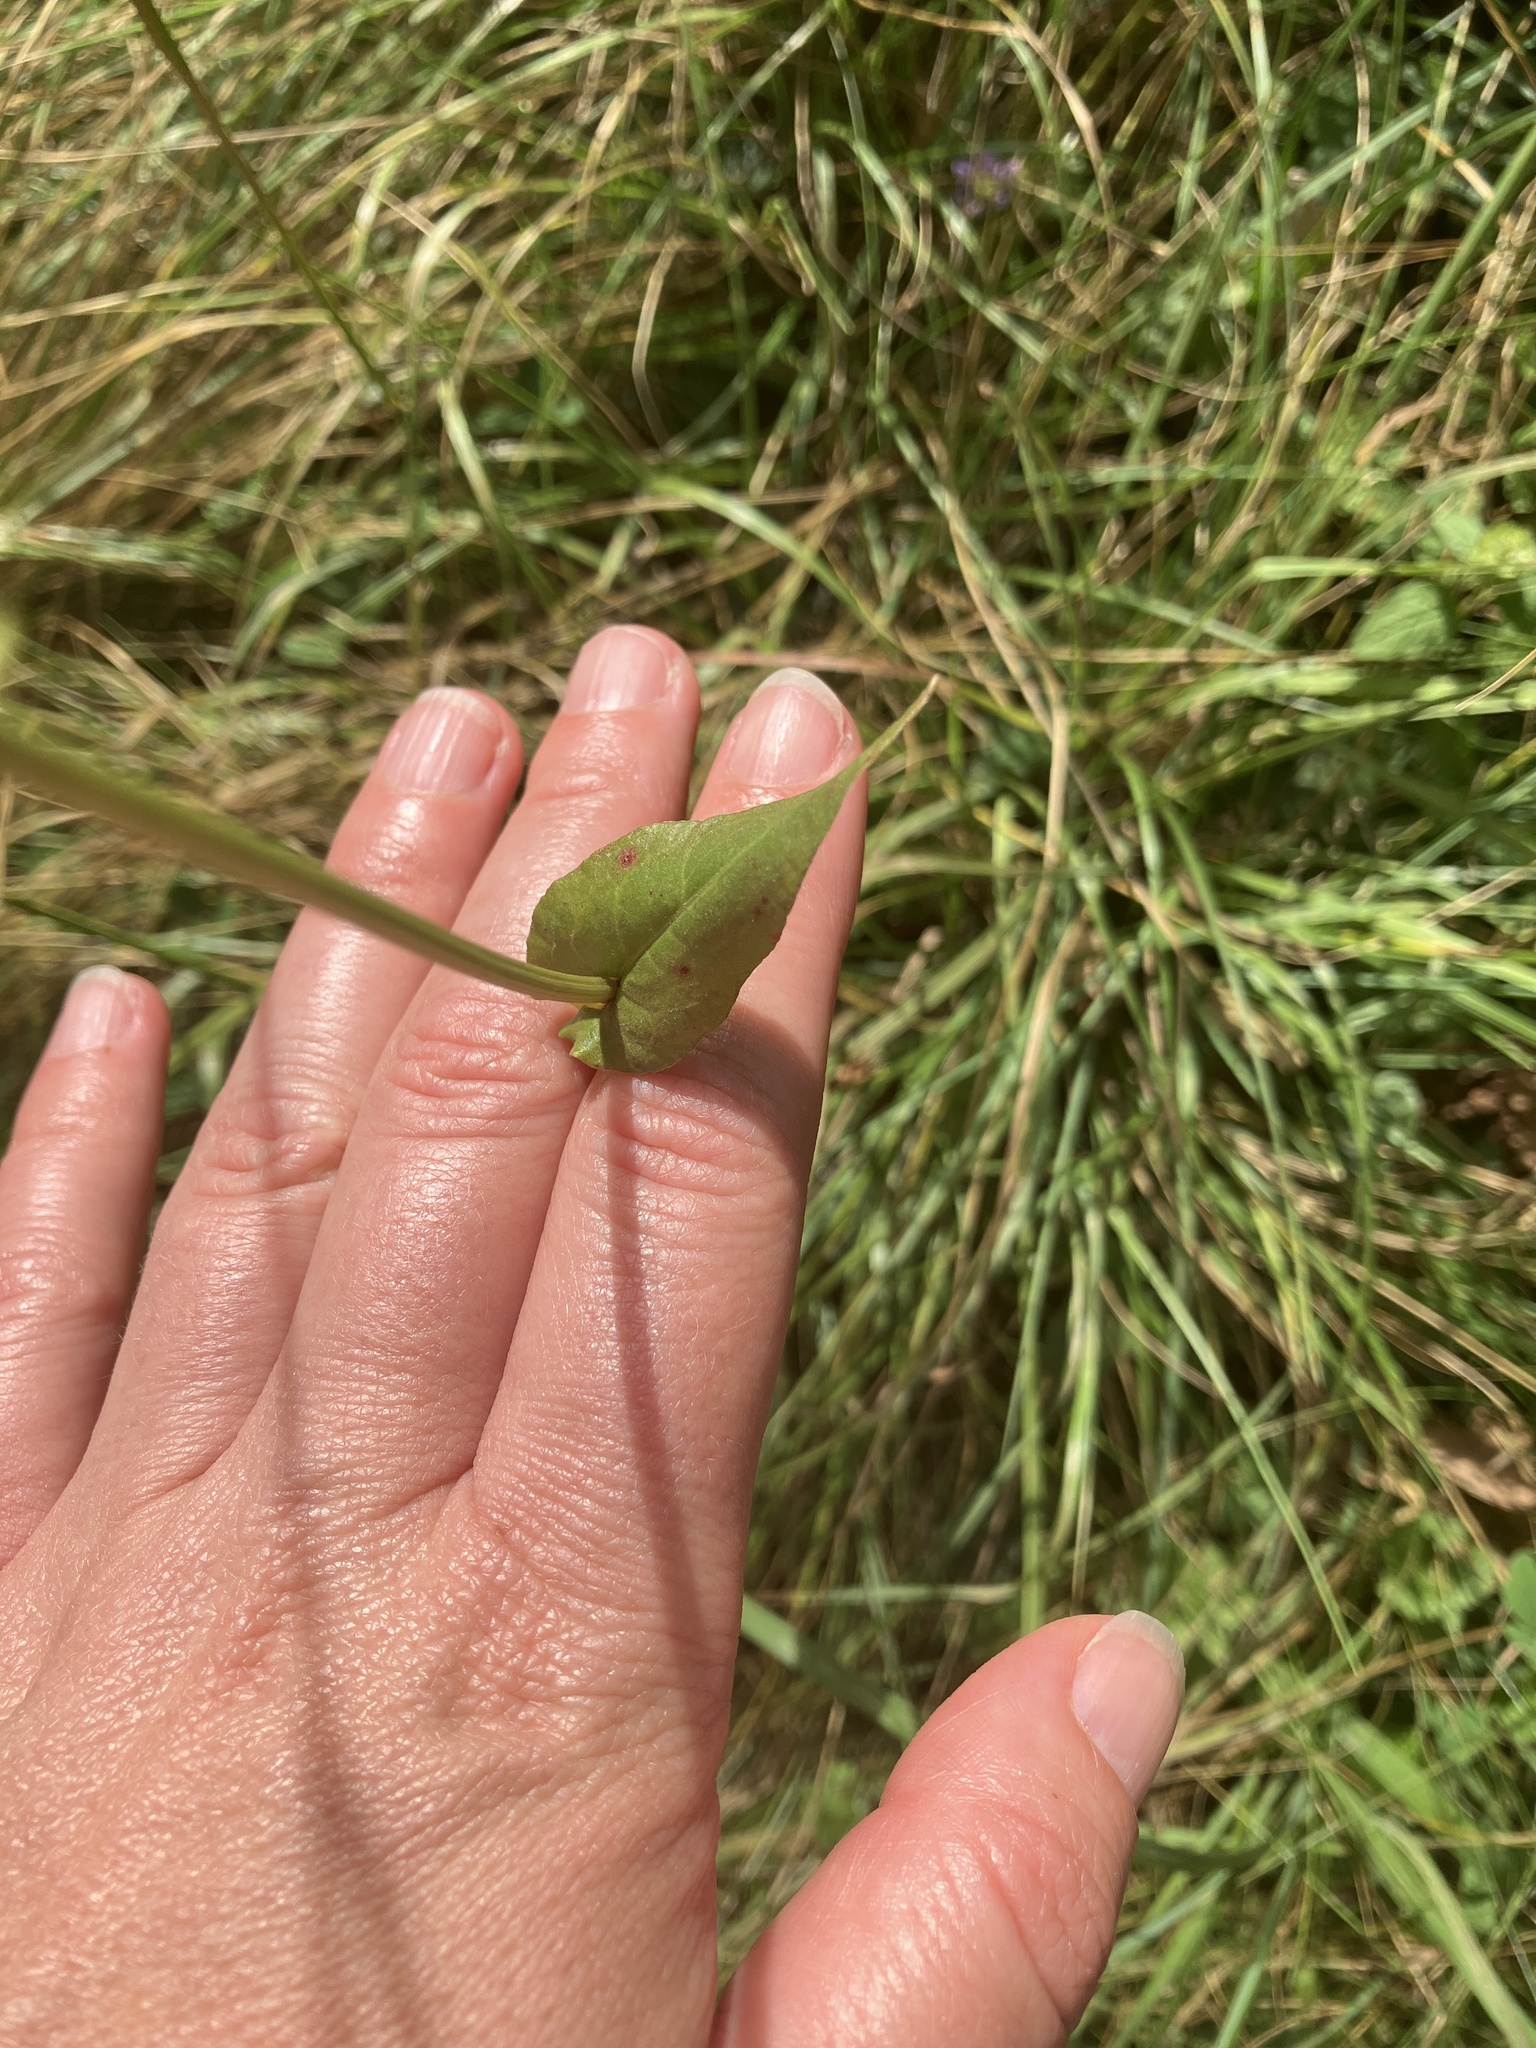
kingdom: Plantae
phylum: Tracheophyta
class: Magnoliopsida
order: Caryophyllales
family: Polygonaceae
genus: Rumex
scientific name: Rumex acetosa
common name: Garden sorrel
